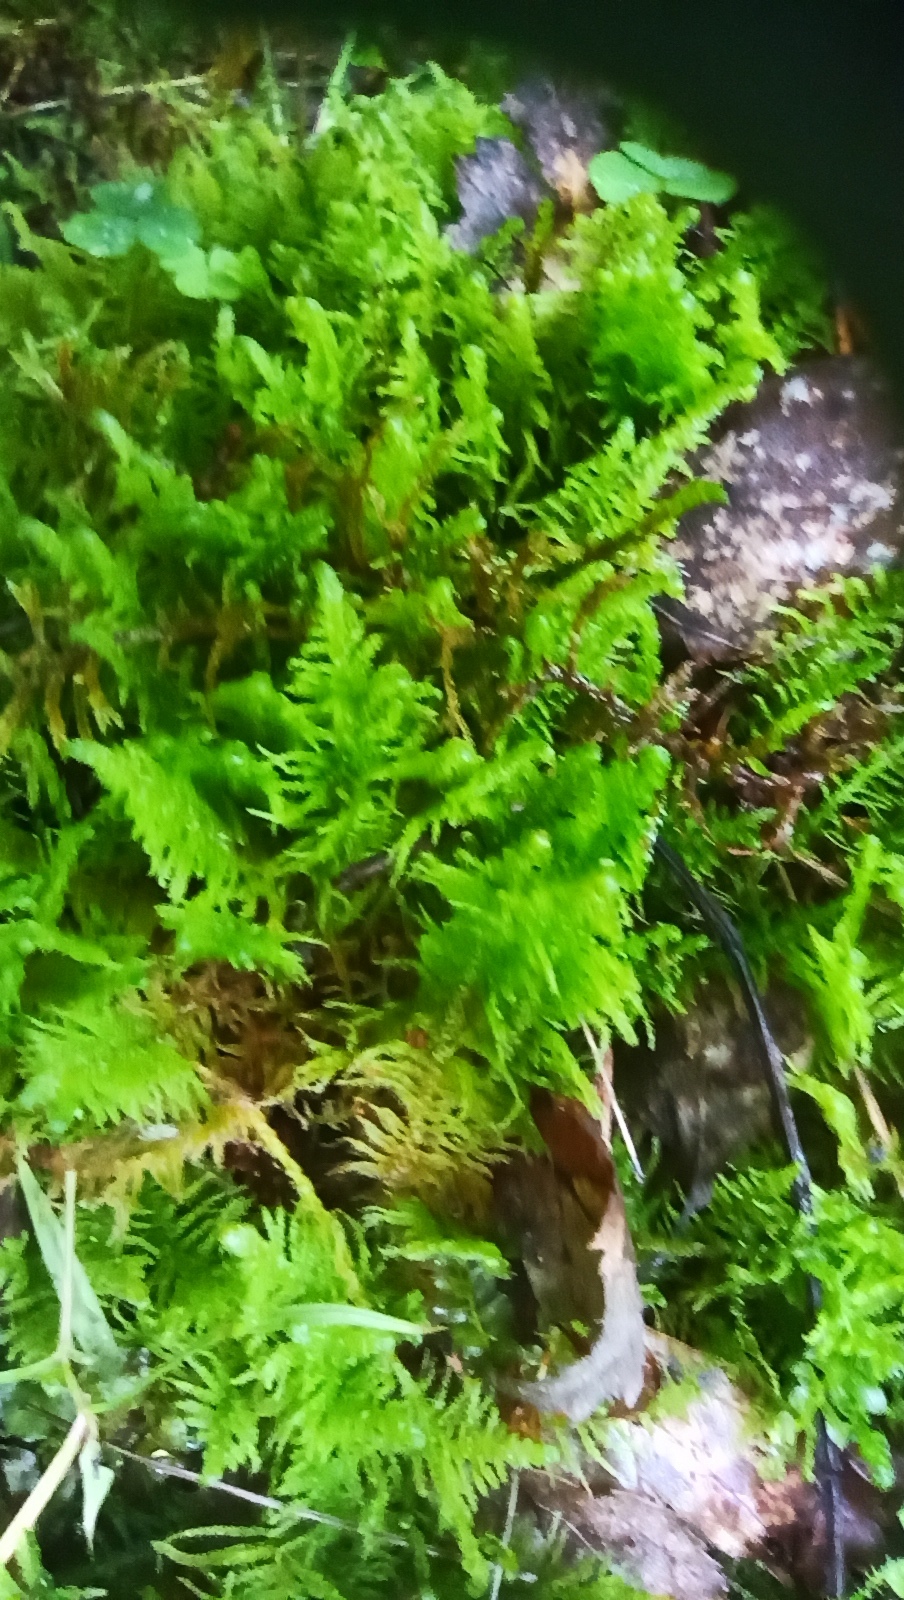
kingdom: Plantae
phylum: Bryophyta
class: Bryopsida
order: Hypnales
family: Pylaisiaceae
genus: Ptilium
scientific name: Ptilium crista-castrensis
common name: Knight's plume moss
